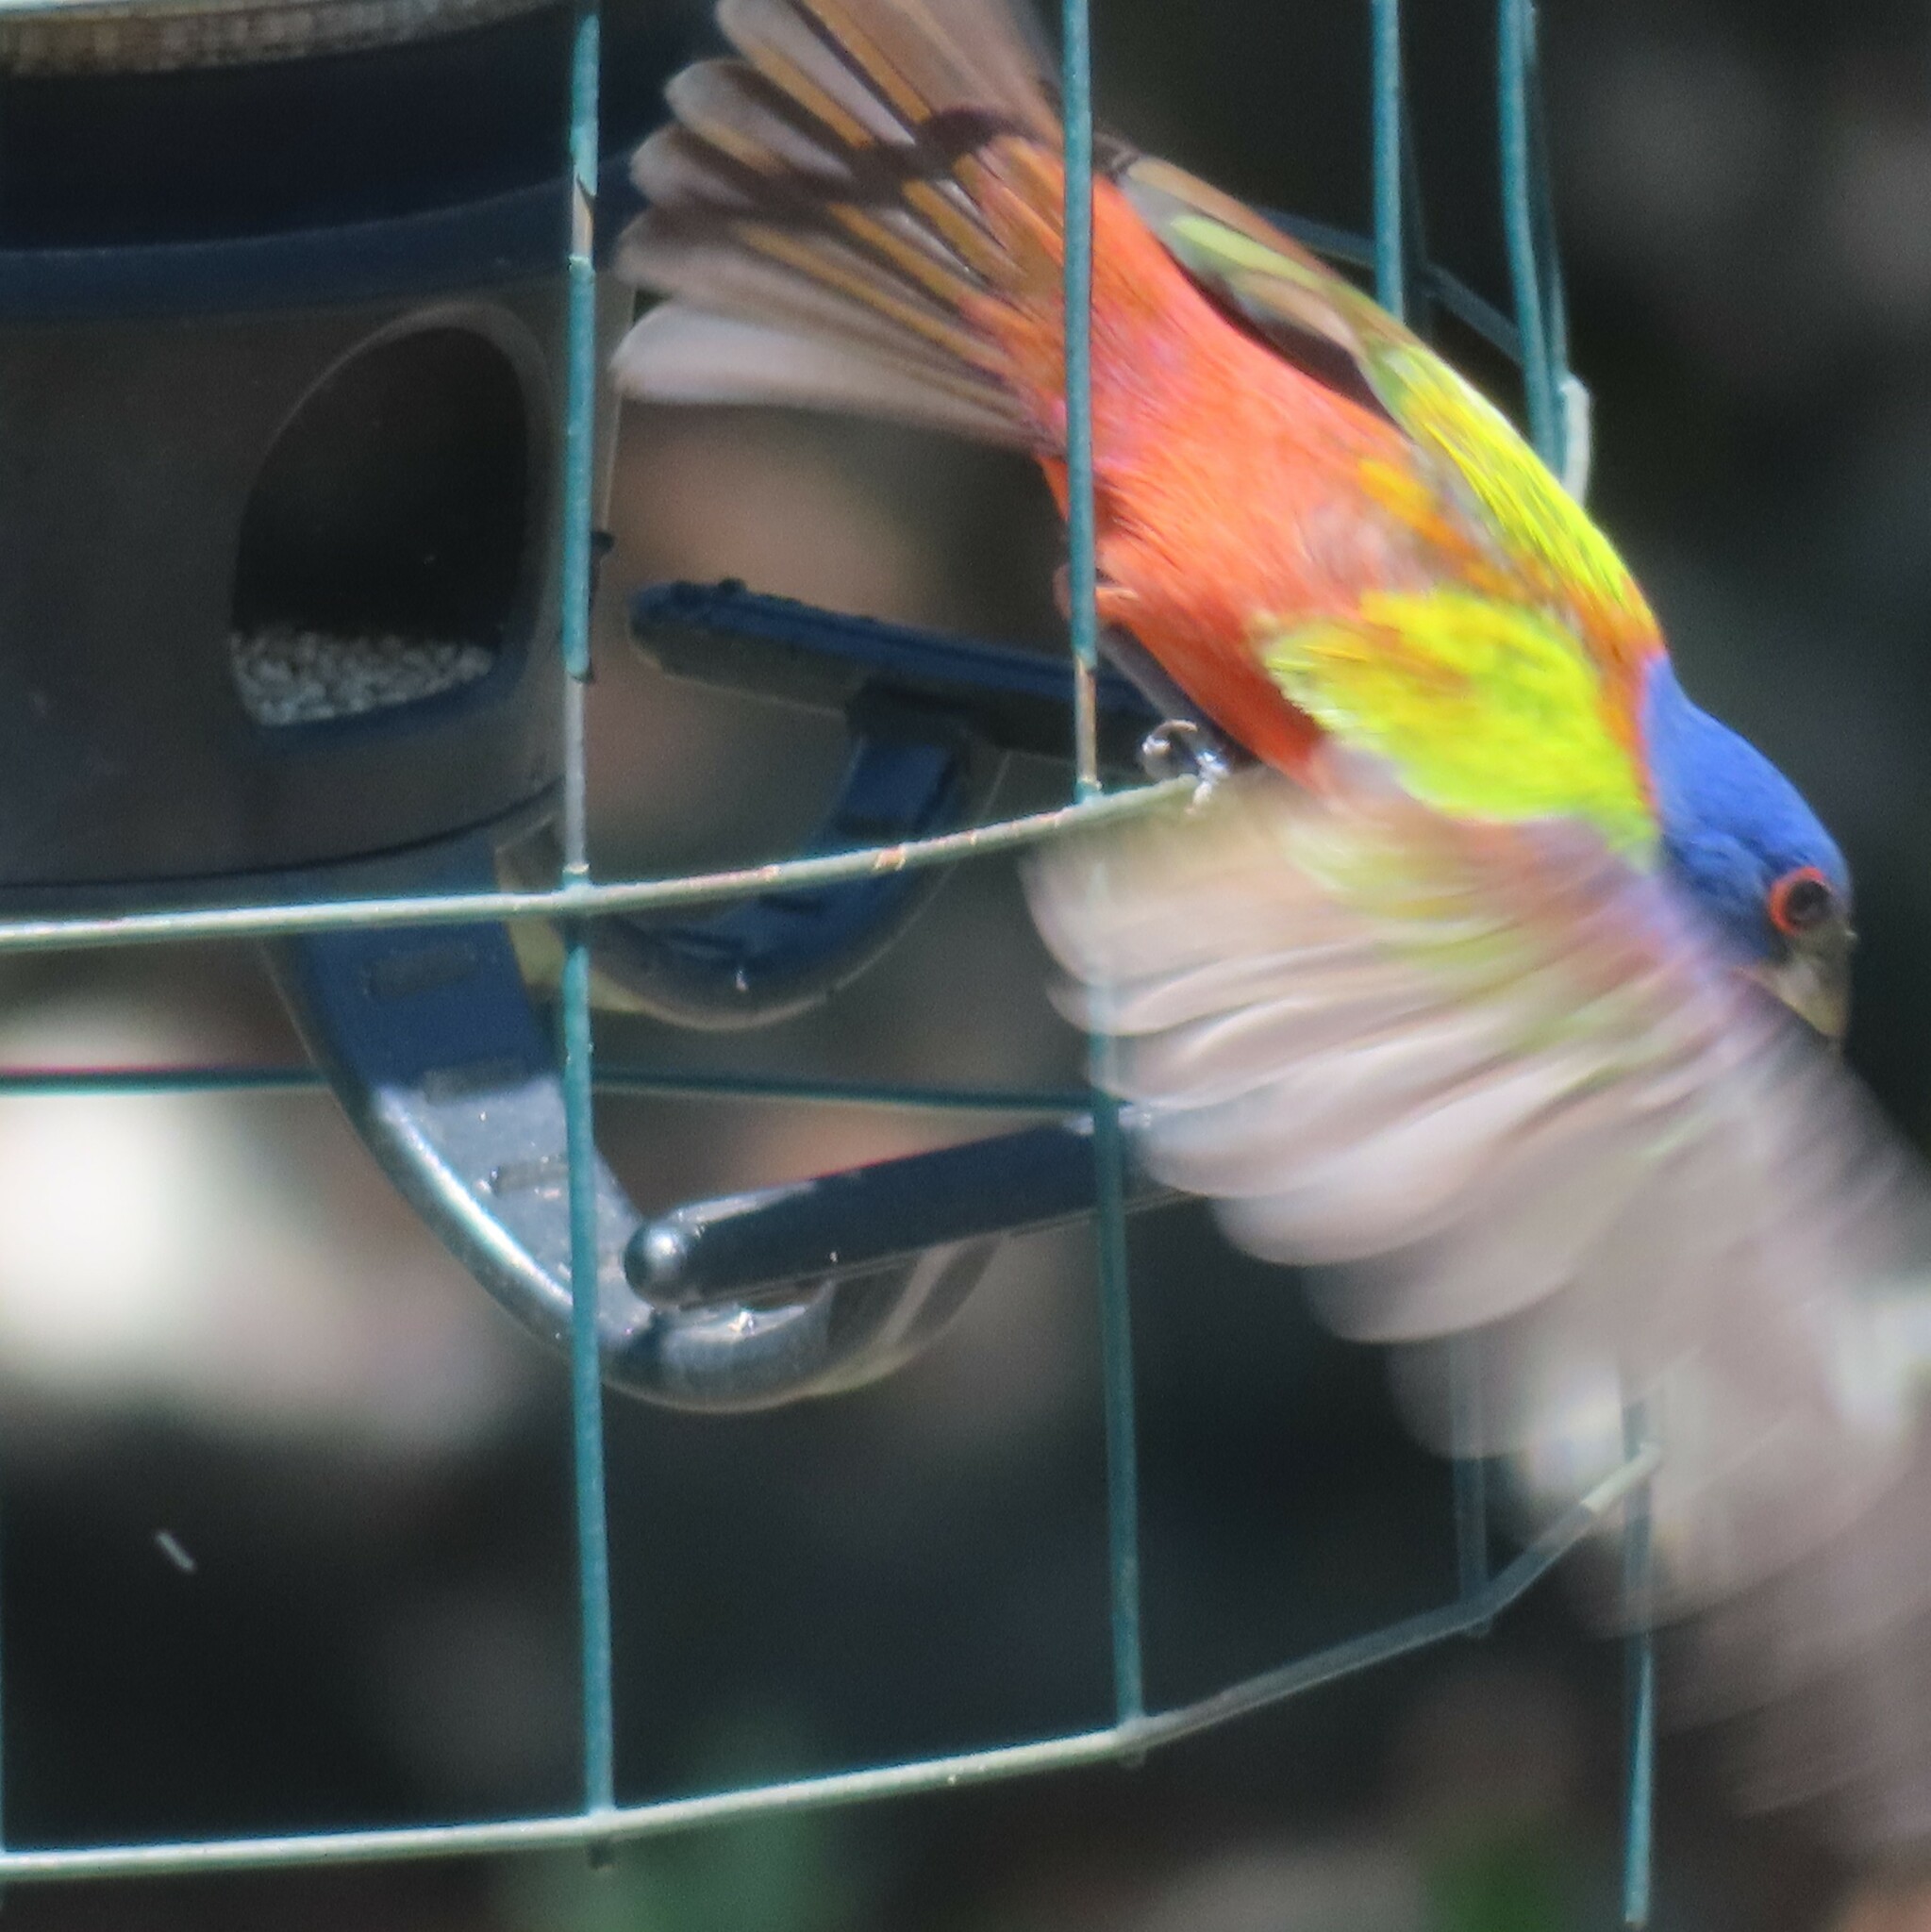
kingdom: Animalia
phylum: Chordata
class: Aves
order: Passeriformes
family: Cardinalidae
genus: Passerina
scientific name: Passerina ciris
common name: Painted bunting
